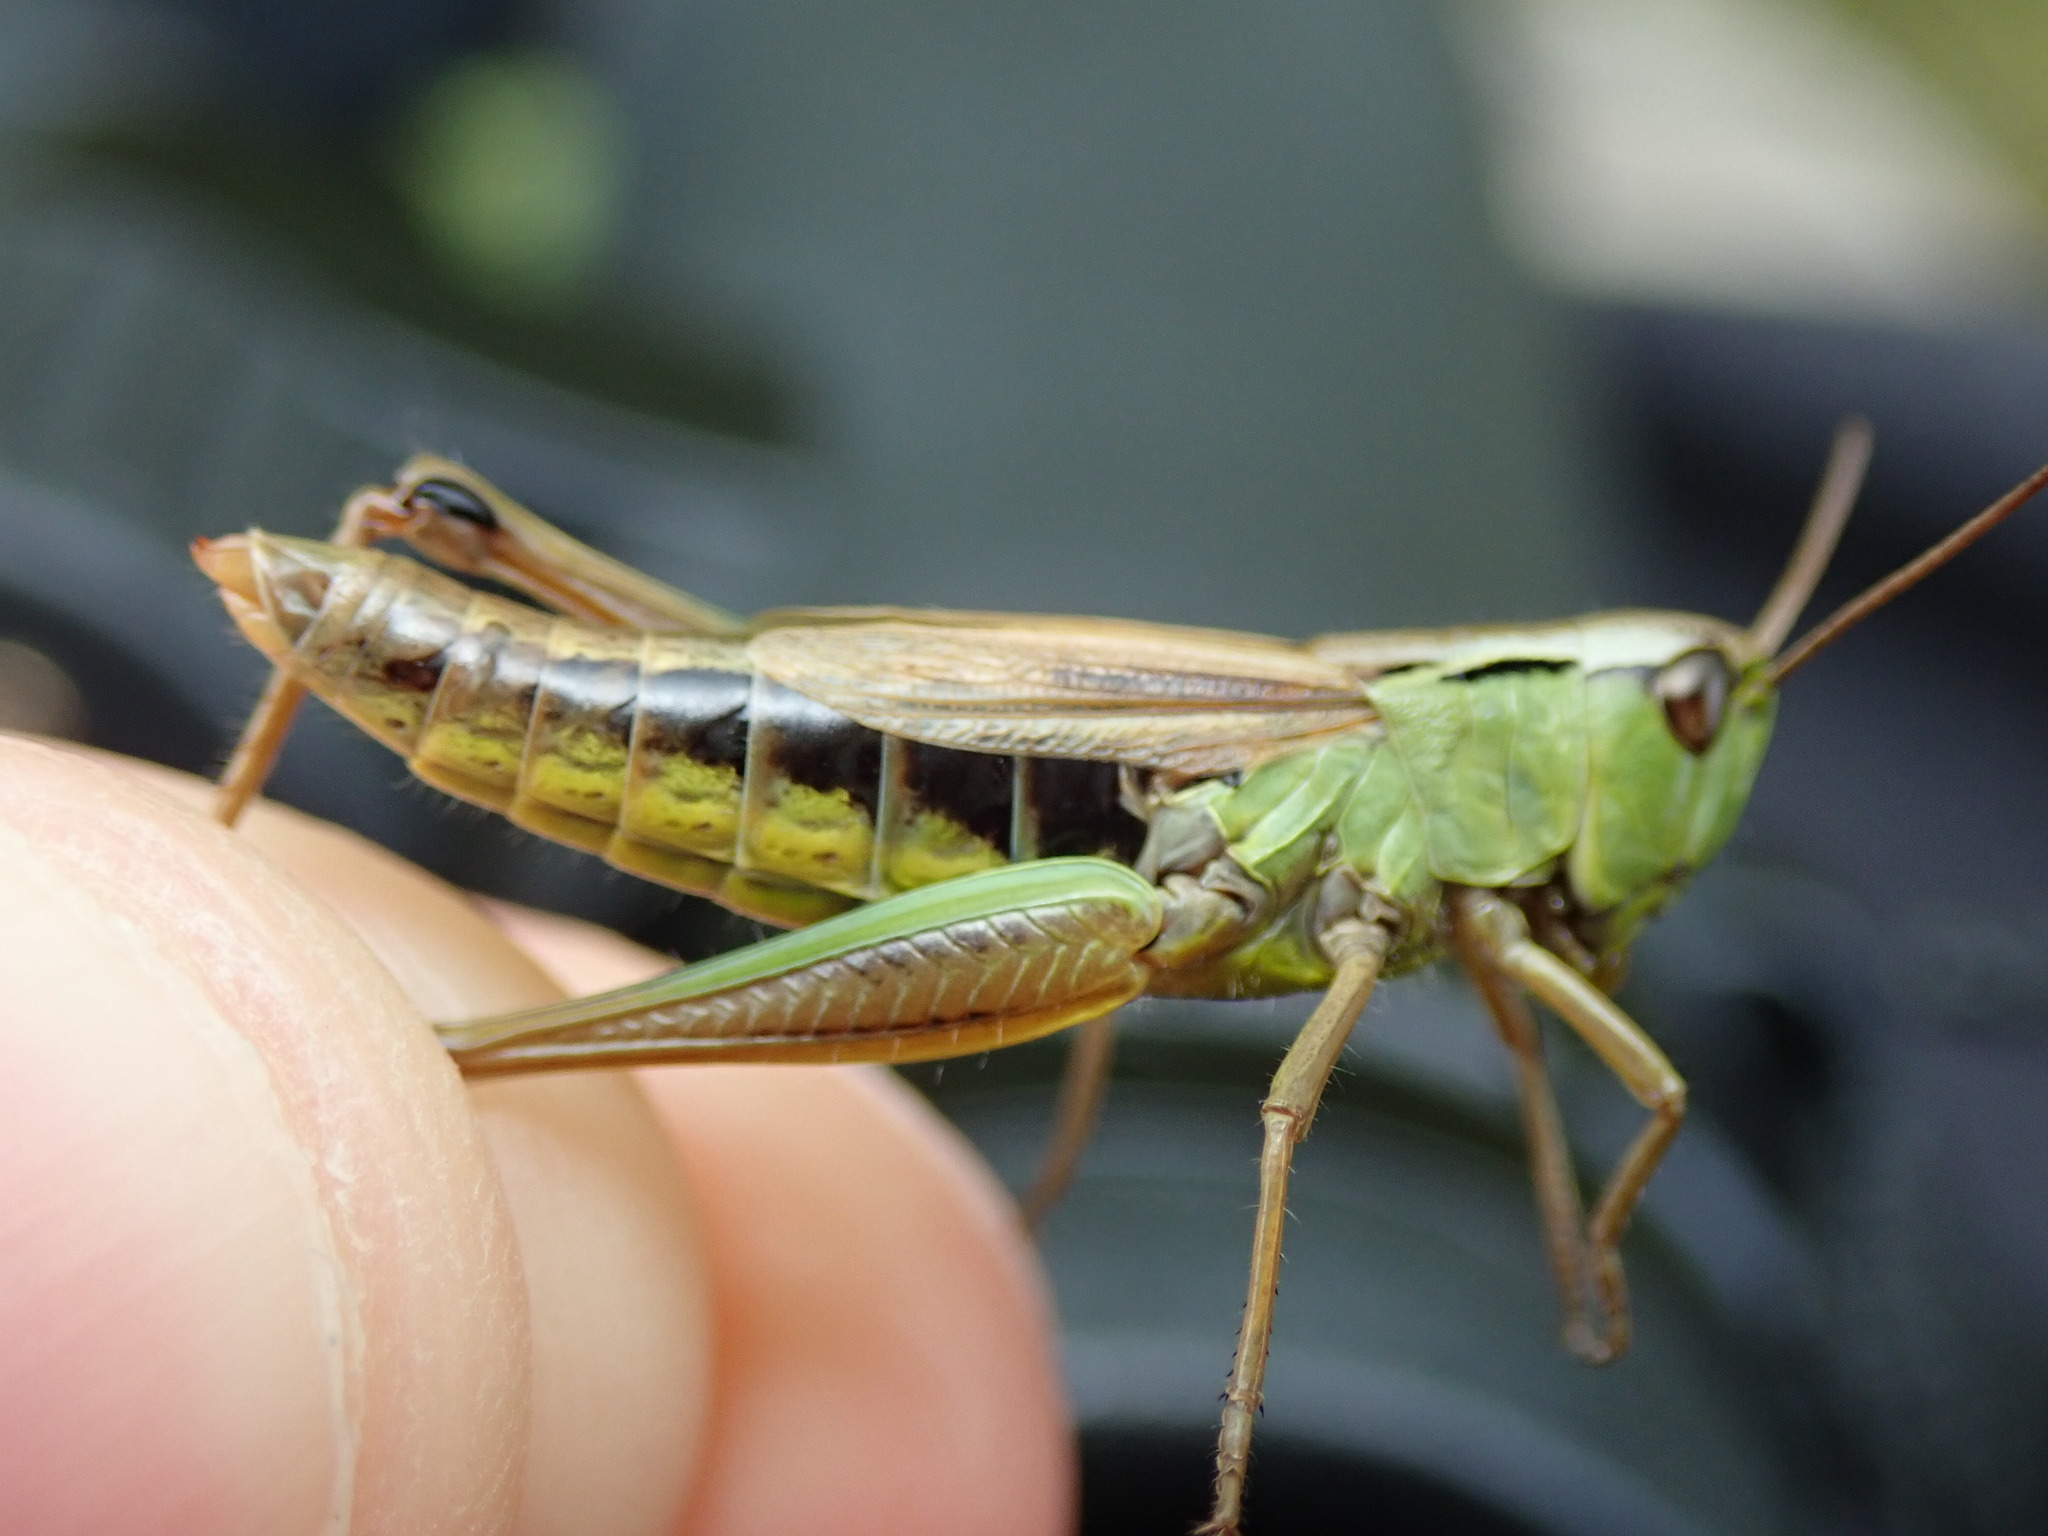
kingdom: Animalia
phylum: Arthropoda
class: Insecta
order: Orthoptera
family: Acrididae
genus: Pseudochorthippus
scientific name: Pseudochorthippus montanus
